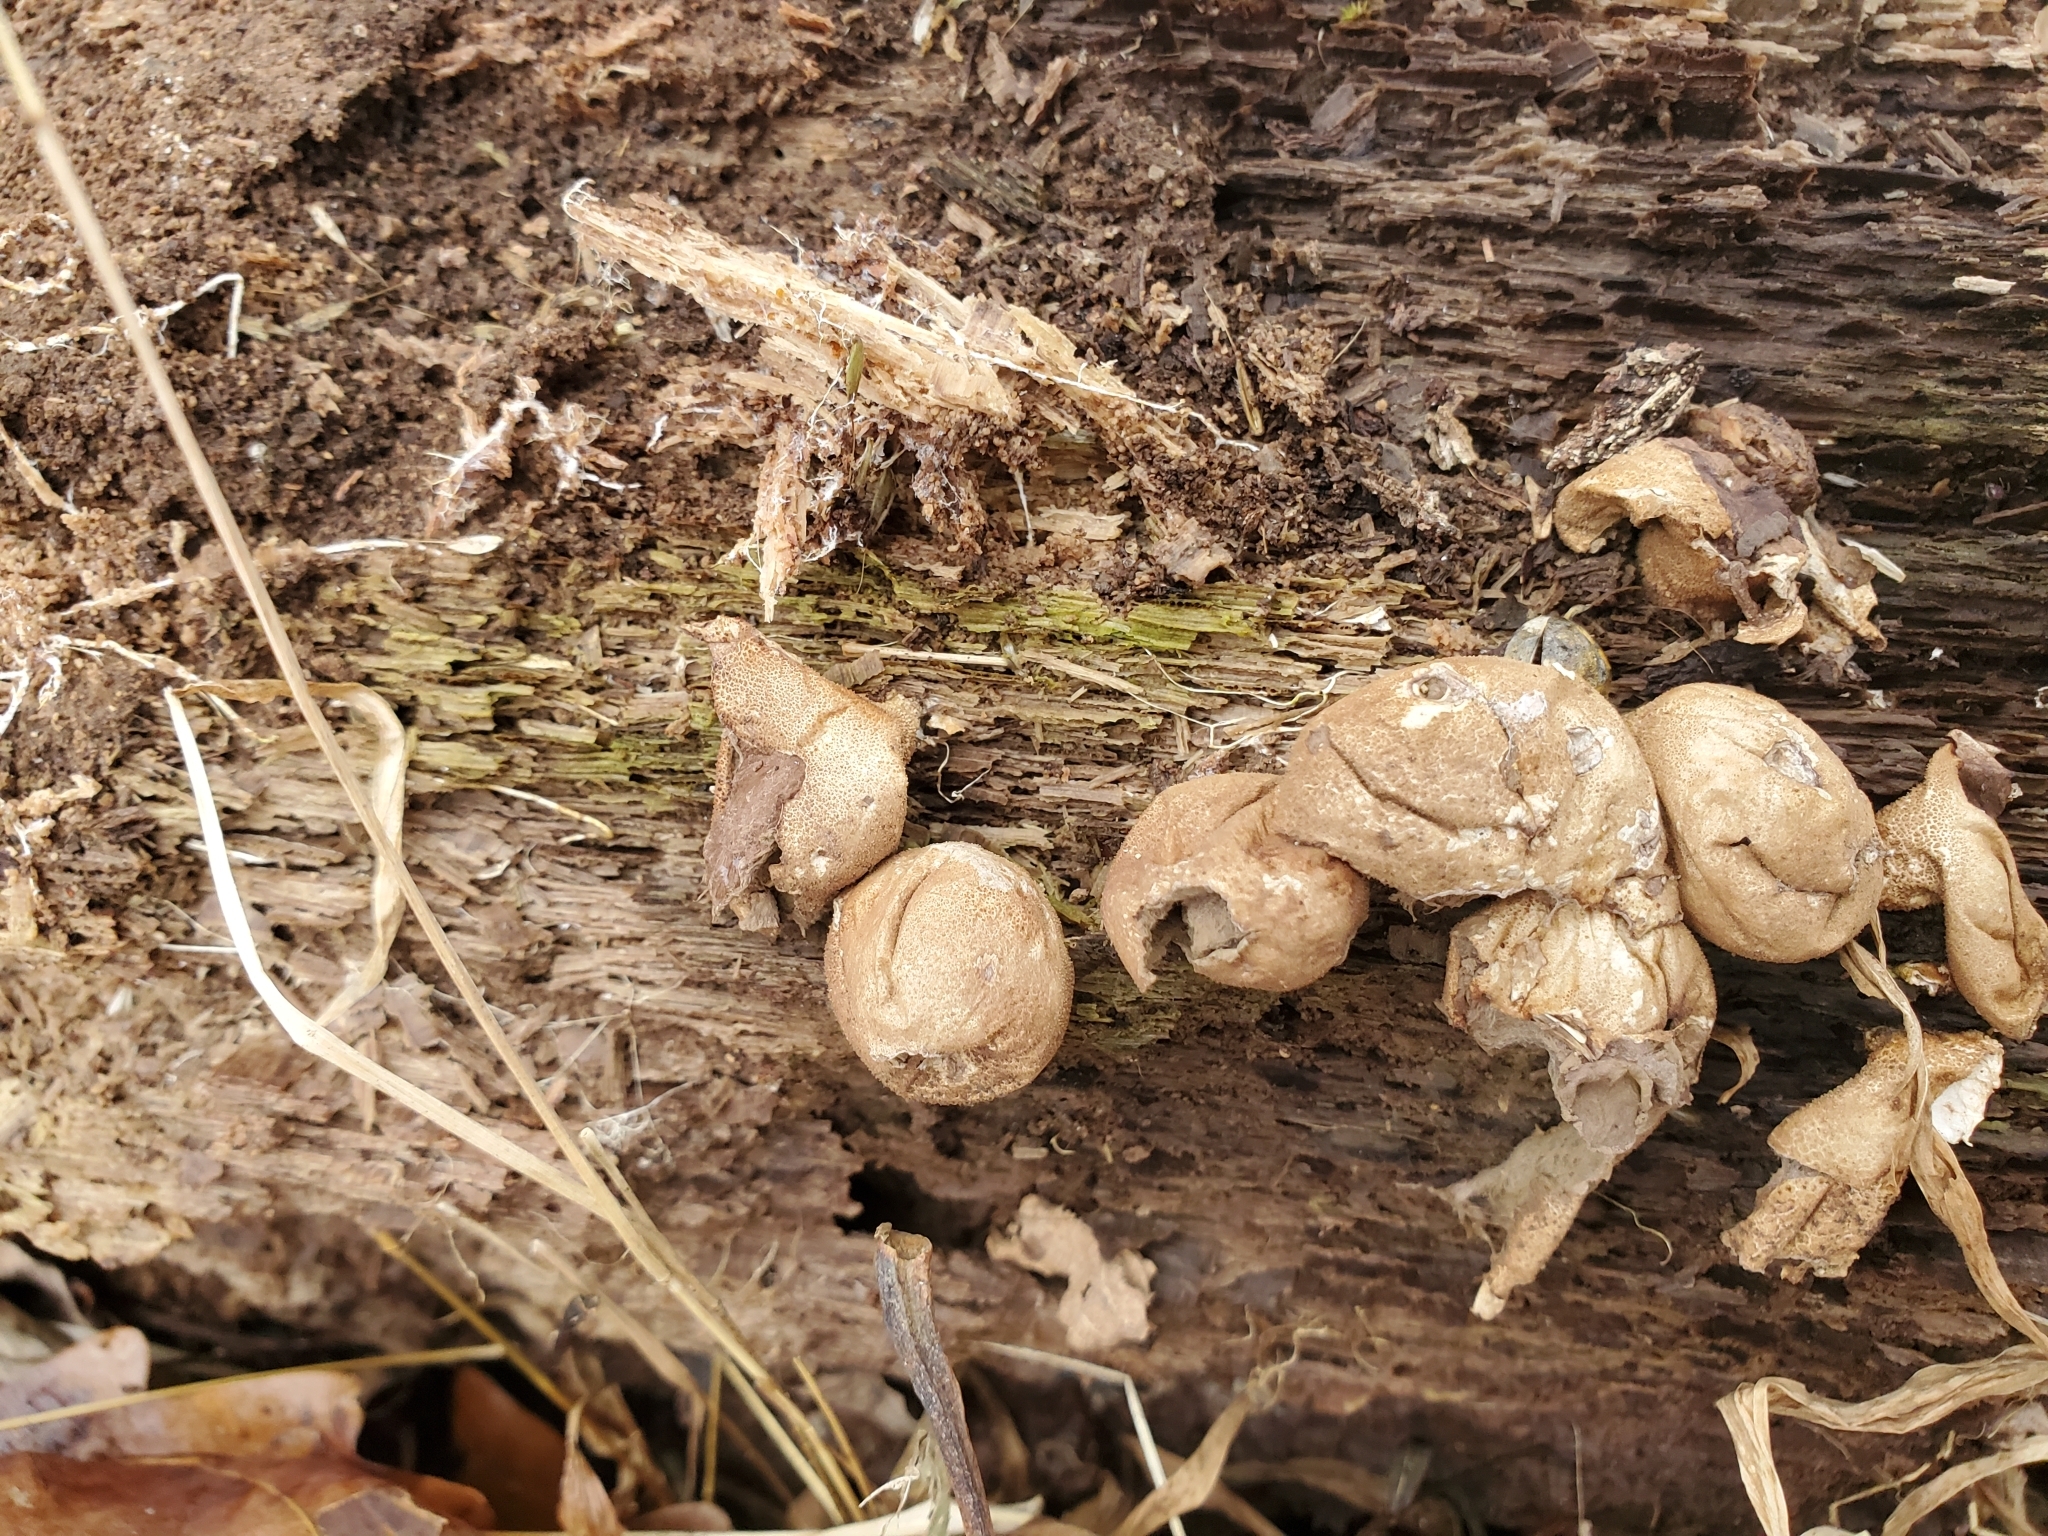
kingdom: Fungi
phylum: Basidiomycota
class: Agaricomycetes
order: Agaricales
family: Lycoperdaceae
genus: Apioperdon
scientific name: Apioperdon pyriforme
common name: Pear-shaped puffball
